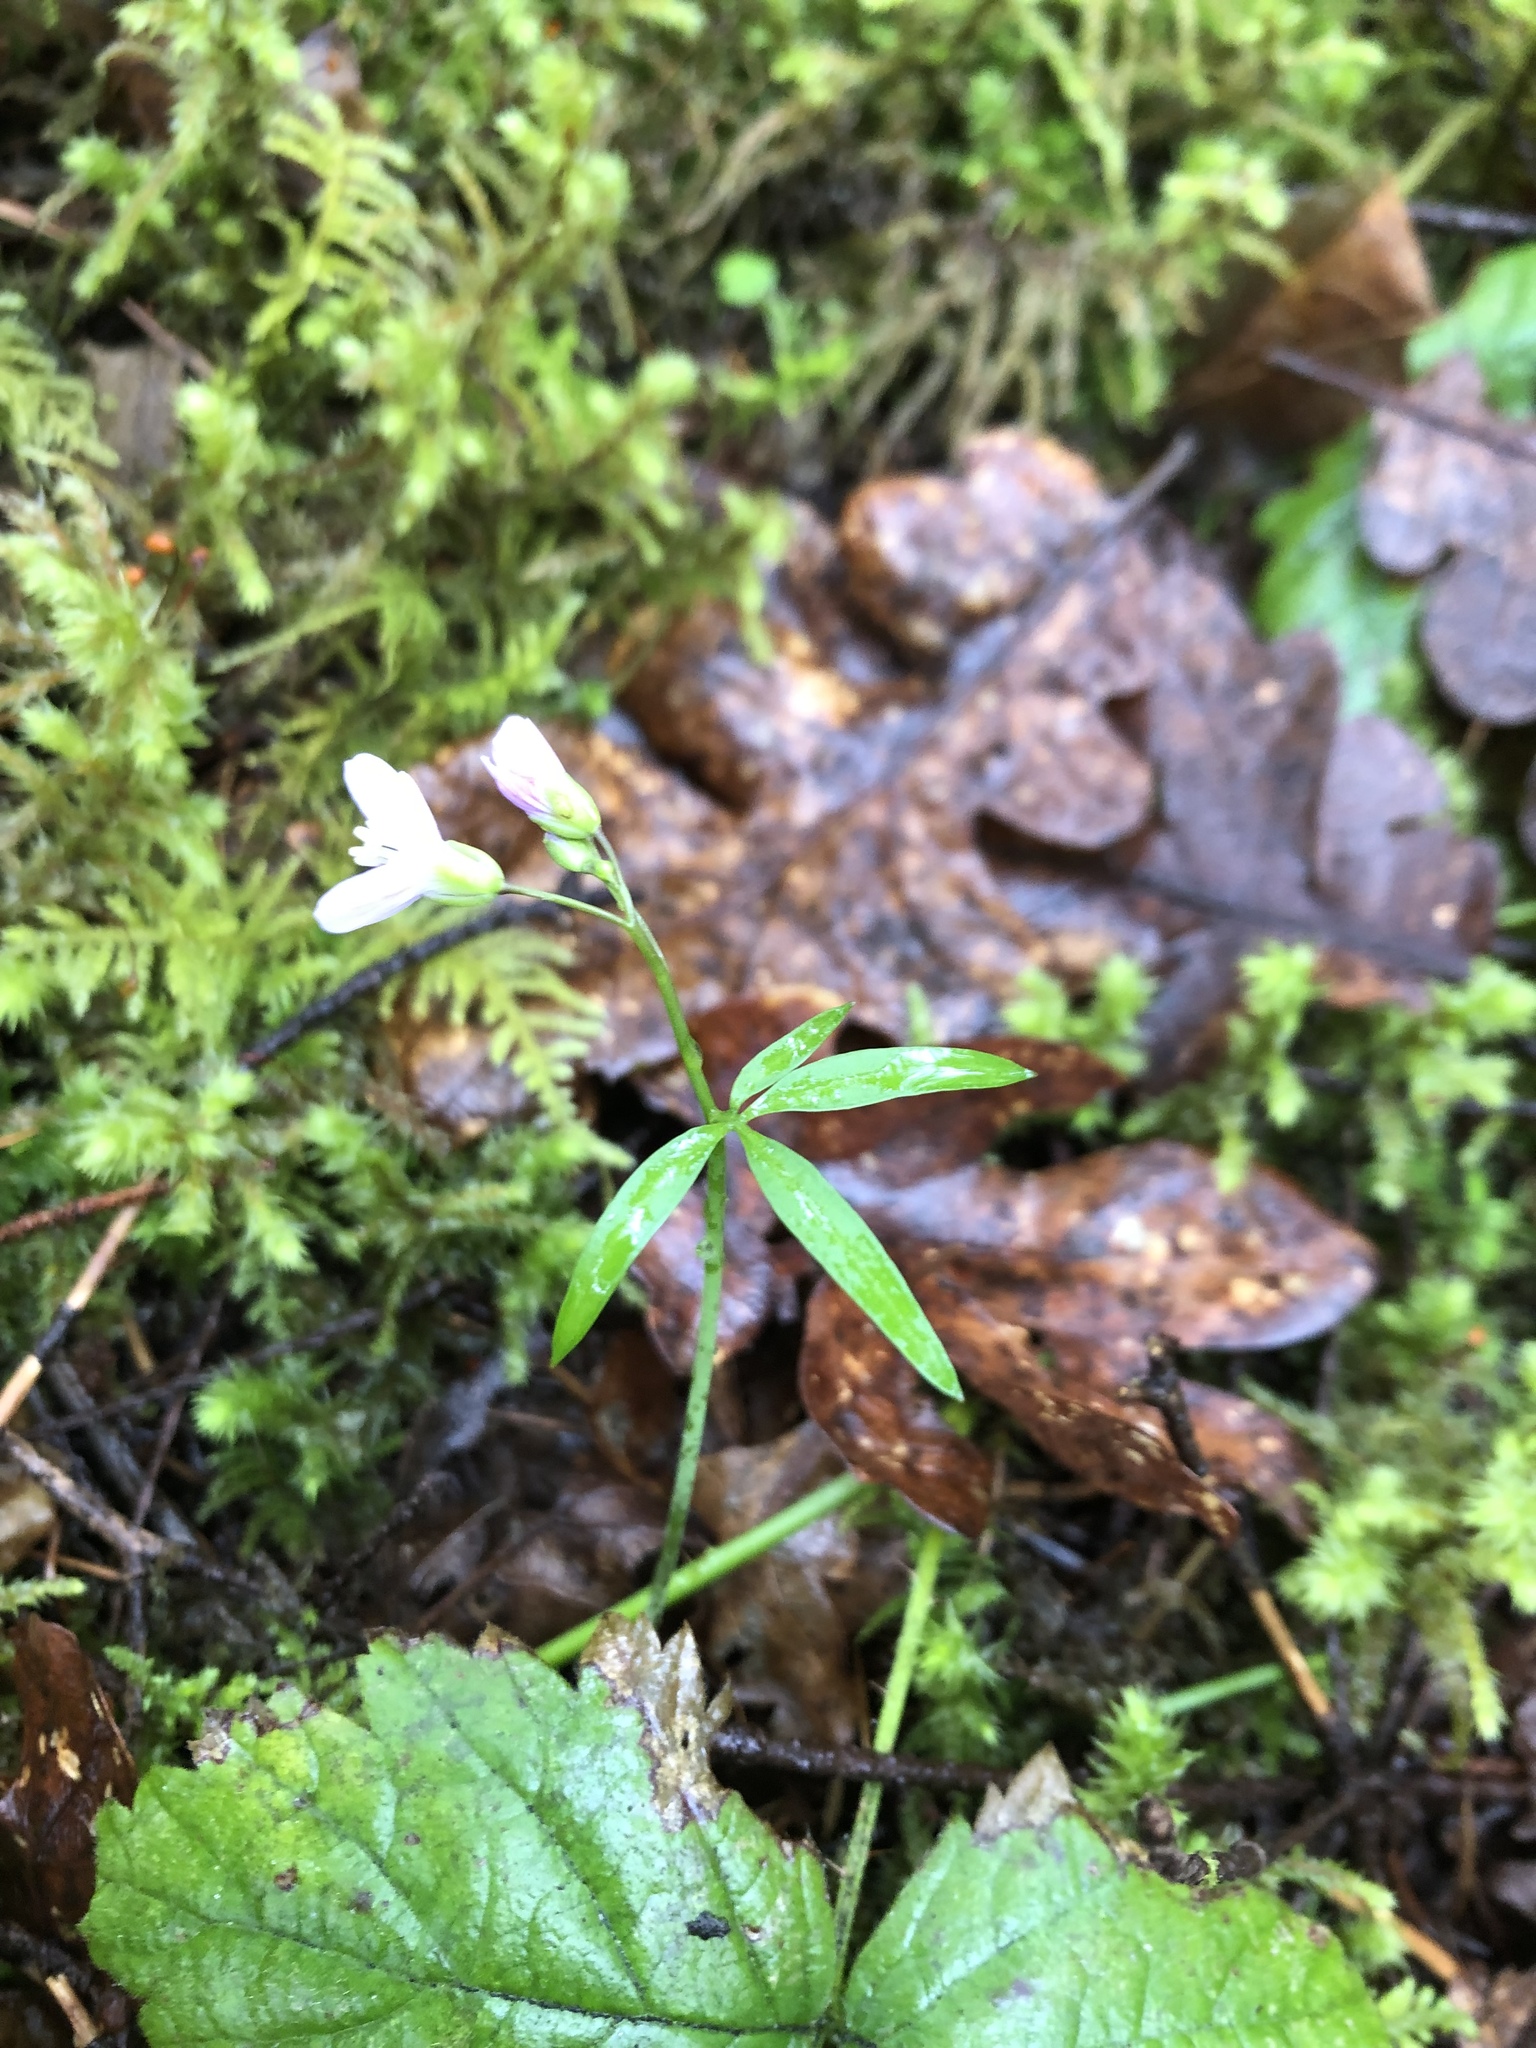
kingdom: Plantae
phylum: Tracheophyta
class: Magnoliopsida
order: Brassicales
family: Brassicaceae
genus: Cardamine
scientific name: Cardamine nuttallii
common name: Nuttall's toothwort
